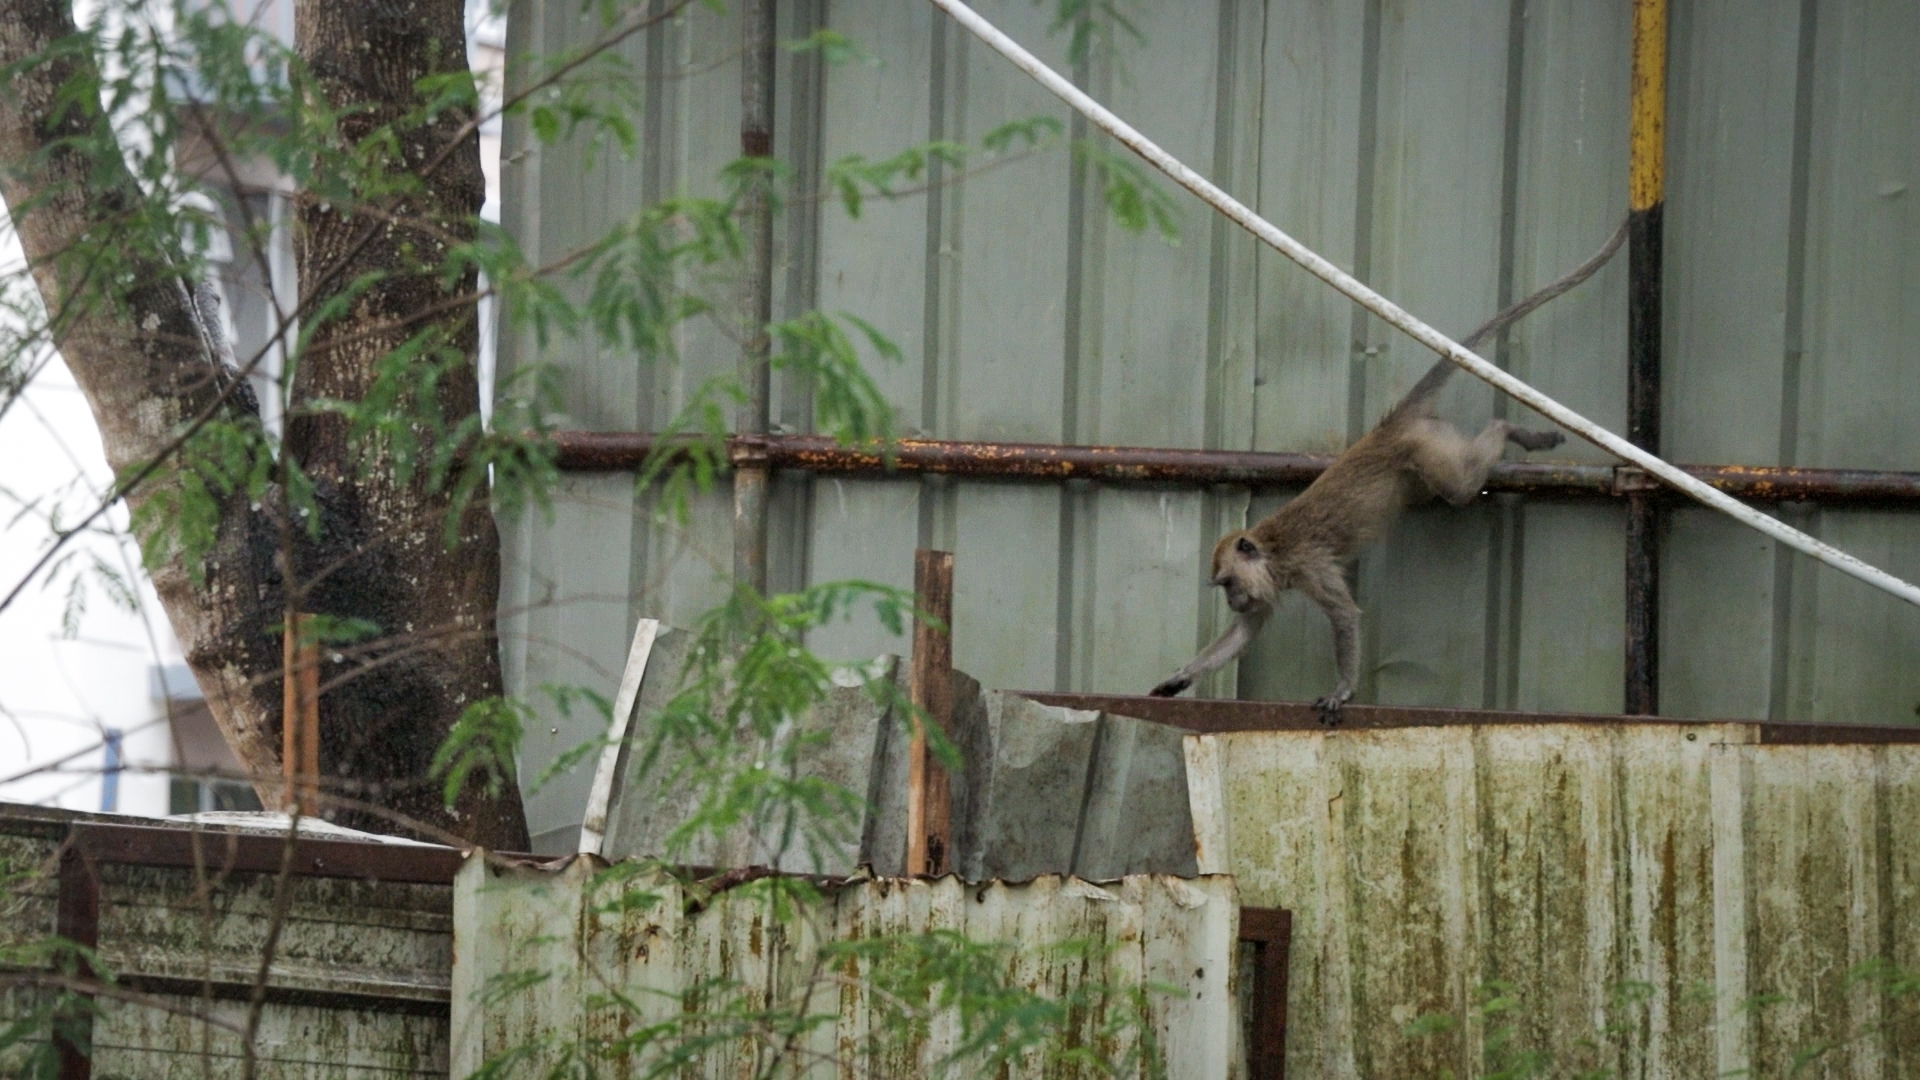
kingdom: Animalia
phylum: Chordata
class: Mammalia
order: Primates
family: Cercopithecidae
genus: Macaca
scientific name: Macaca fascicularis
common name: Crab-eating macaque
